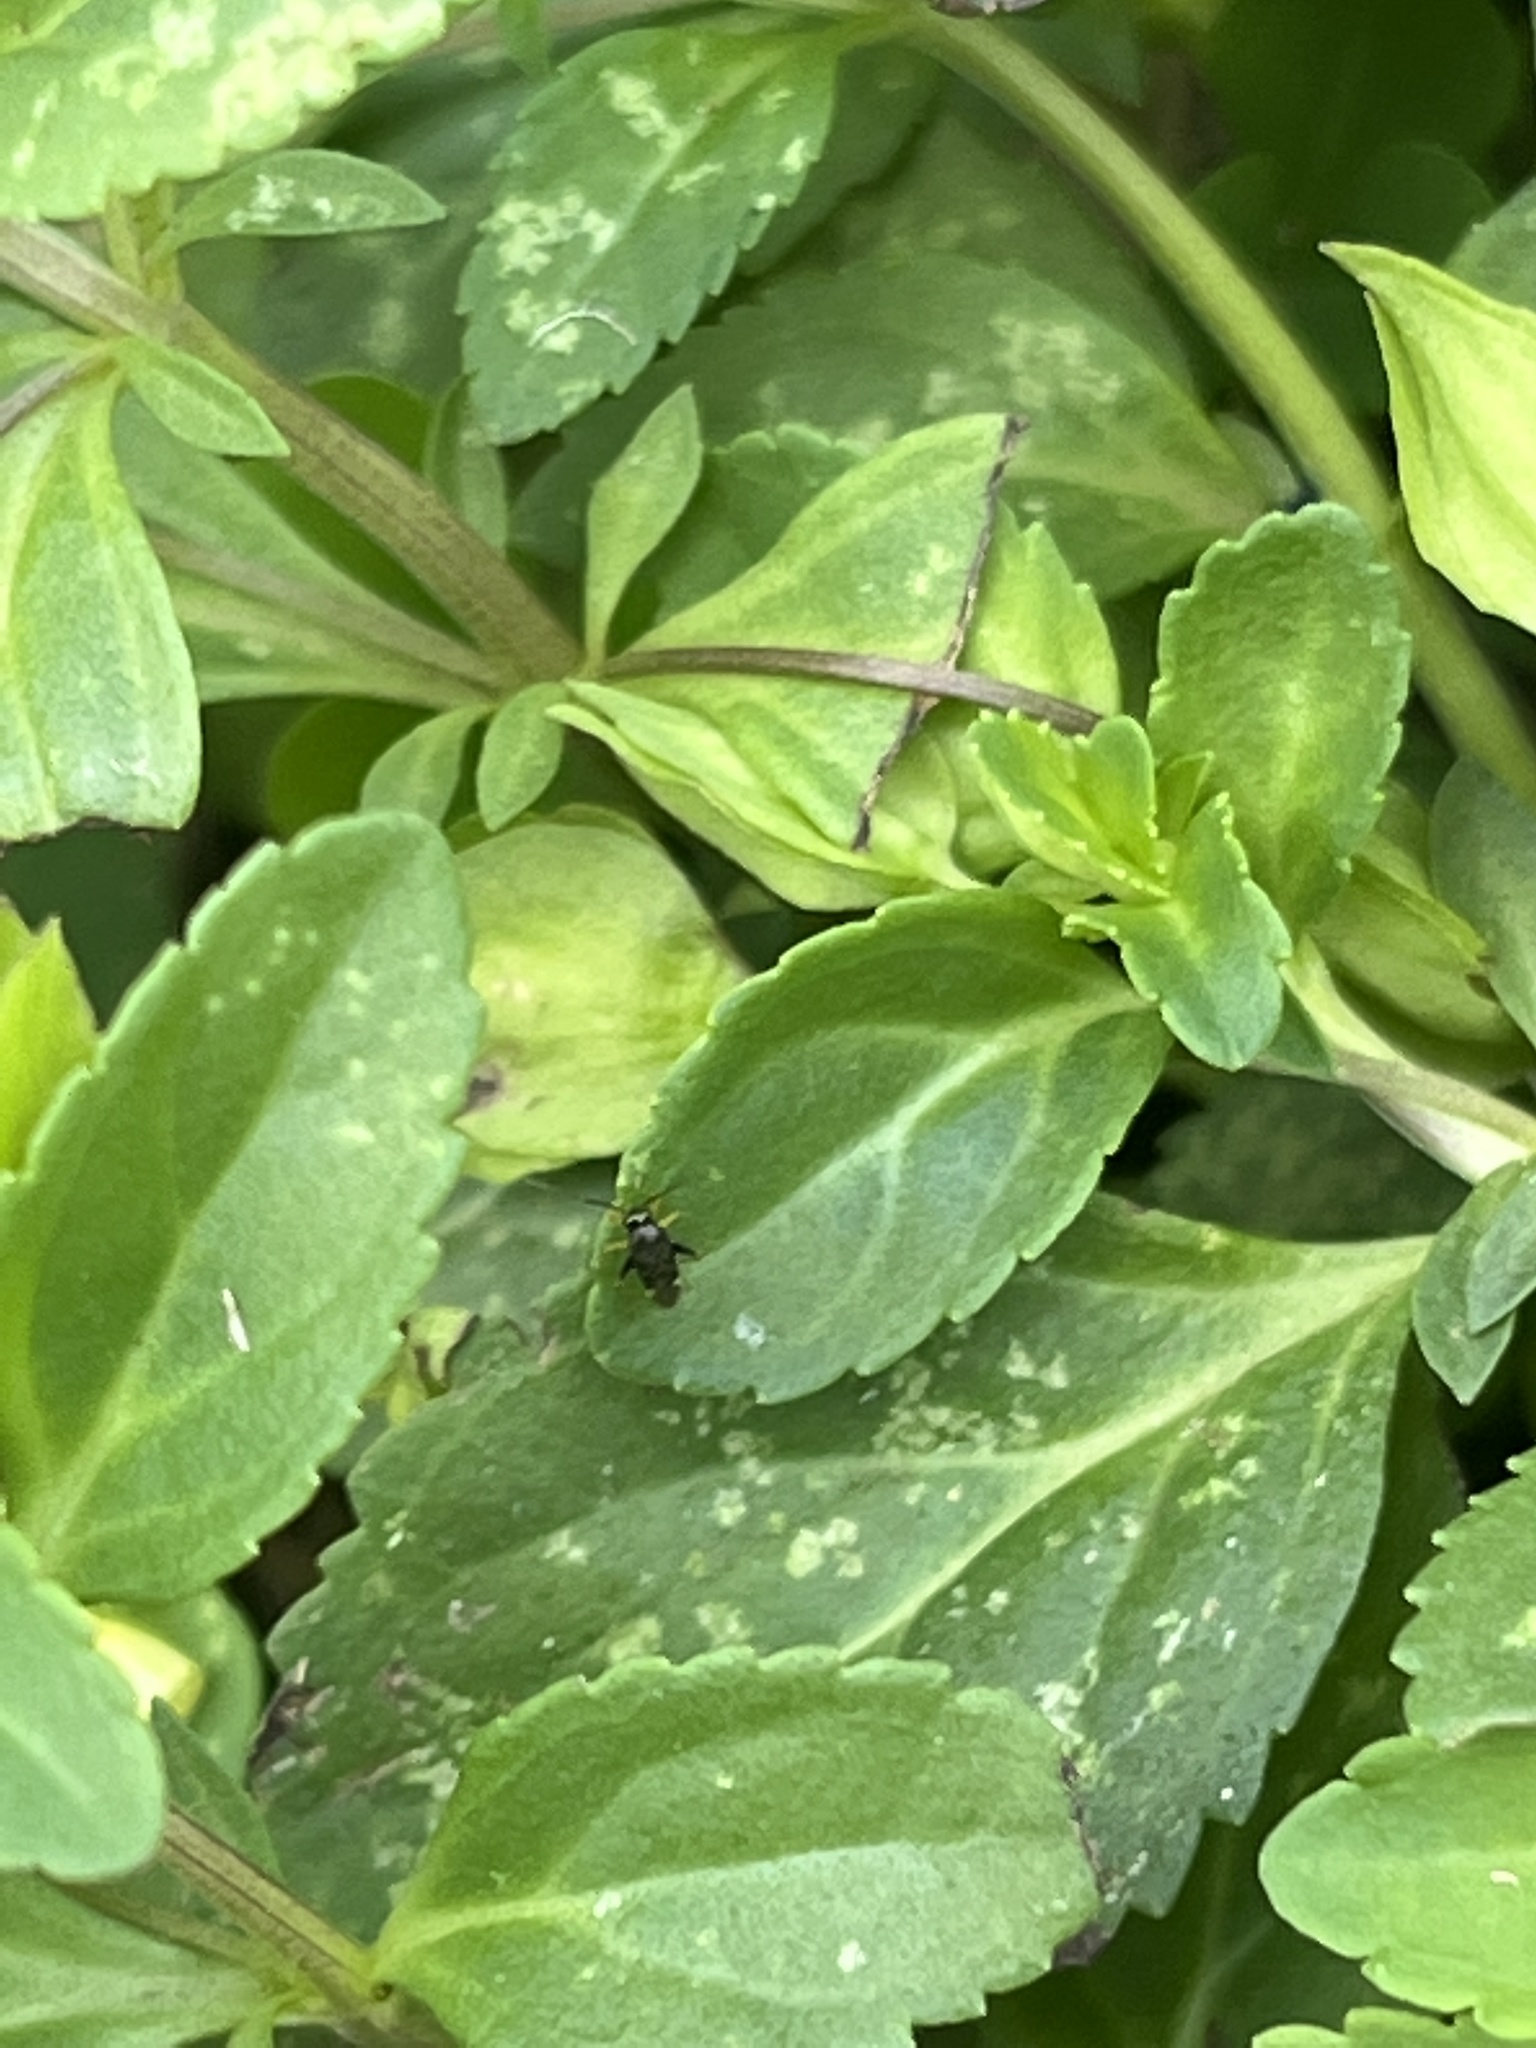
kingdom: Animalia
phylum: Arthropoda
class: Insecta
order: Hemiptera
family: Miridae
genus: Microtechnites
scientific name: Microtechnites bractatus
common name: Garden fleahopper
